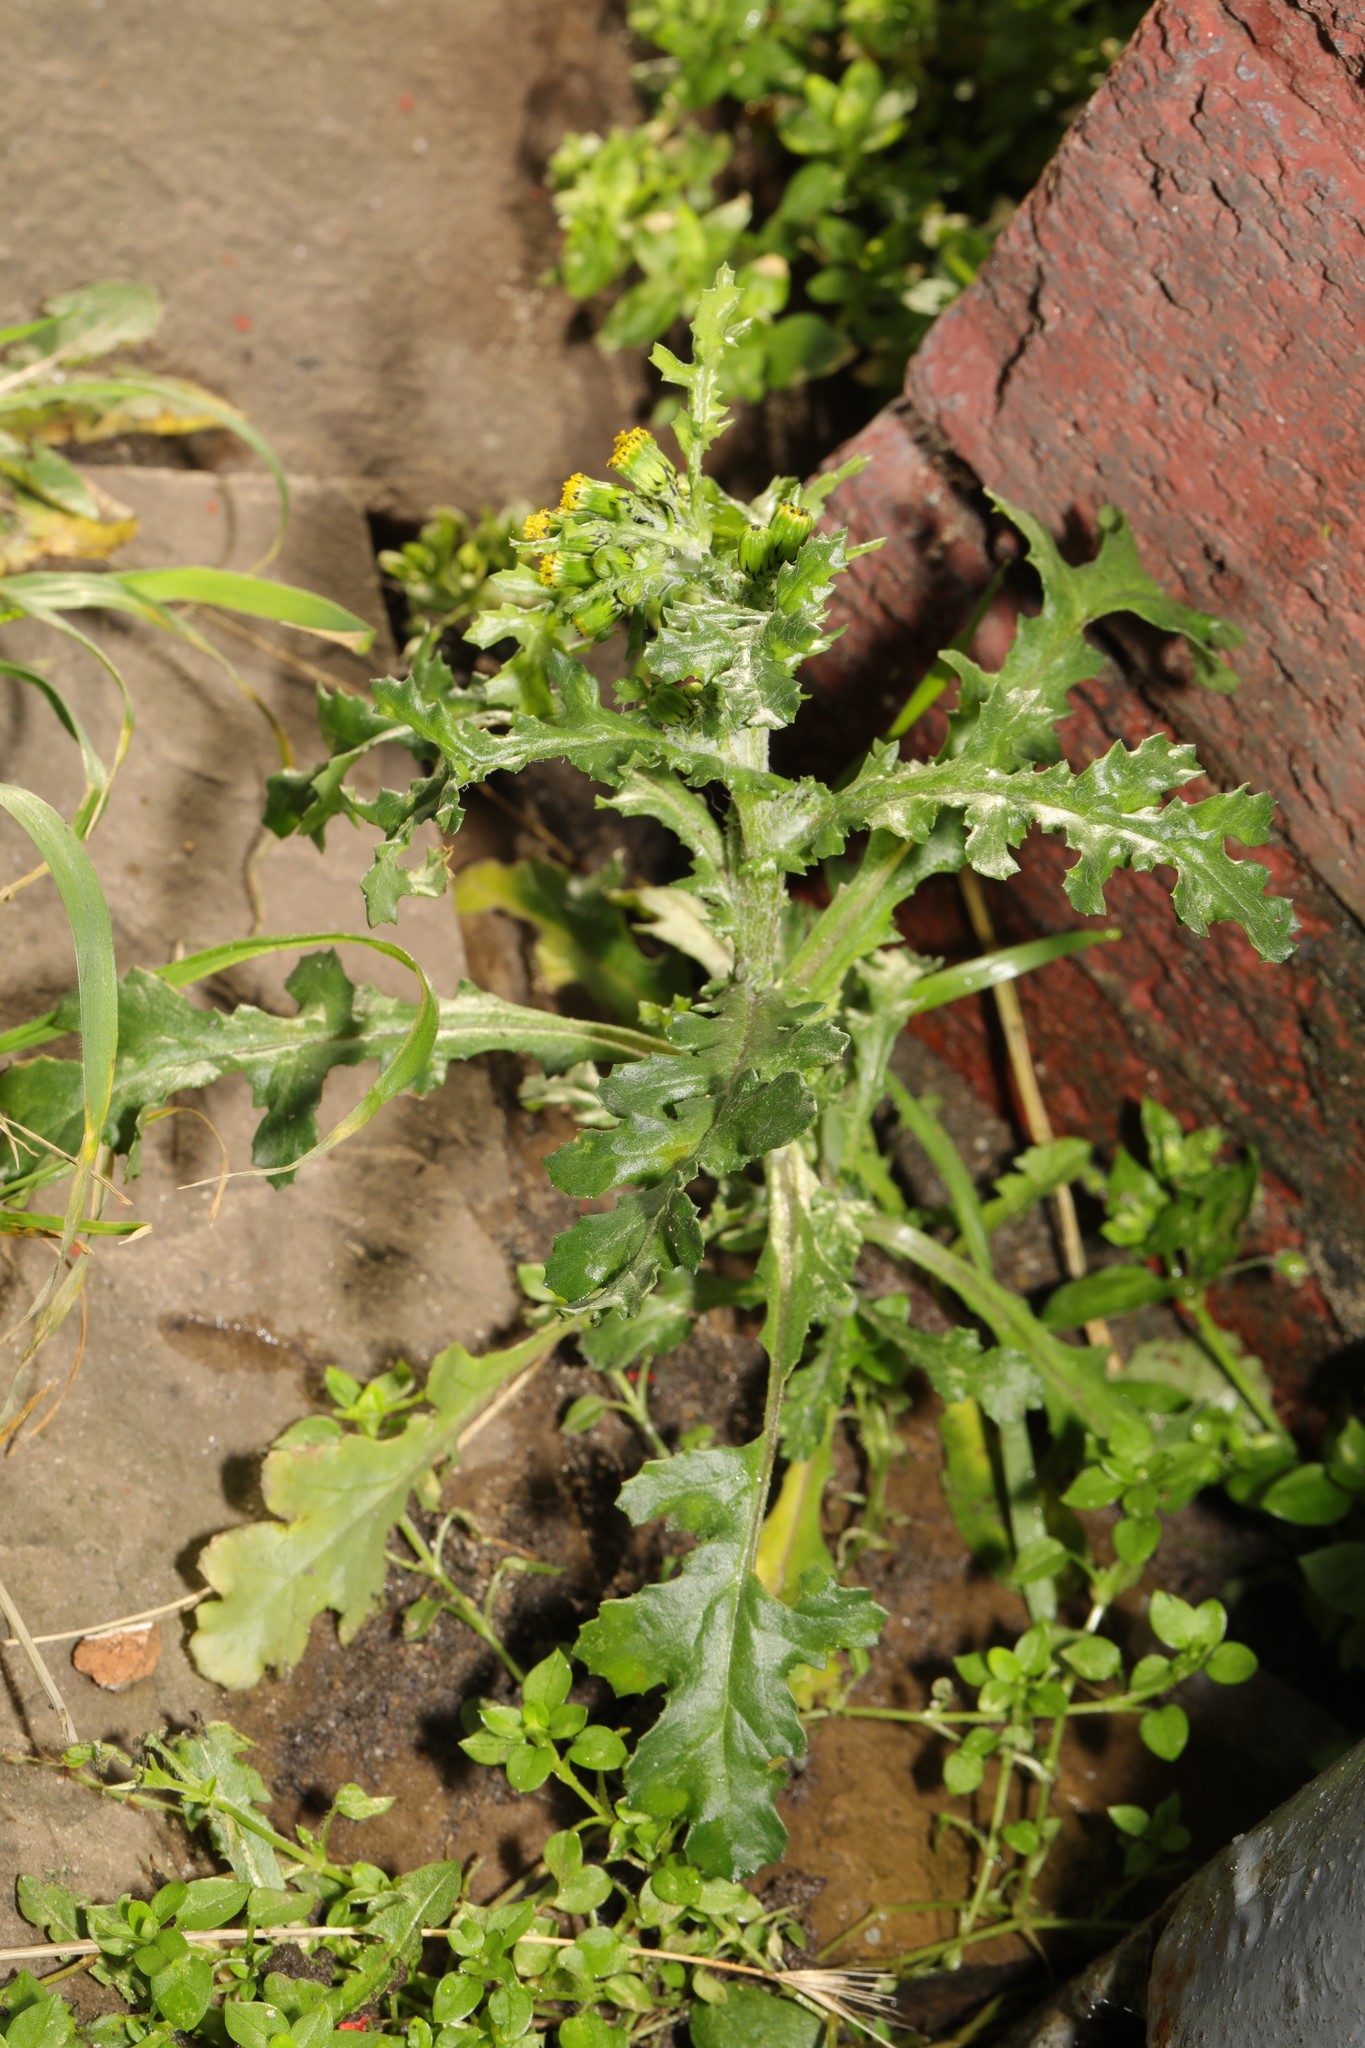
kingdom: Plantae
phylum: Tracheophyta
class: Magnoliopsida
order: Asterales
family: Asteraceae
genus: Senecio
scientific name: Senecio vulgaris
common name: Old-man-in-the-spring
